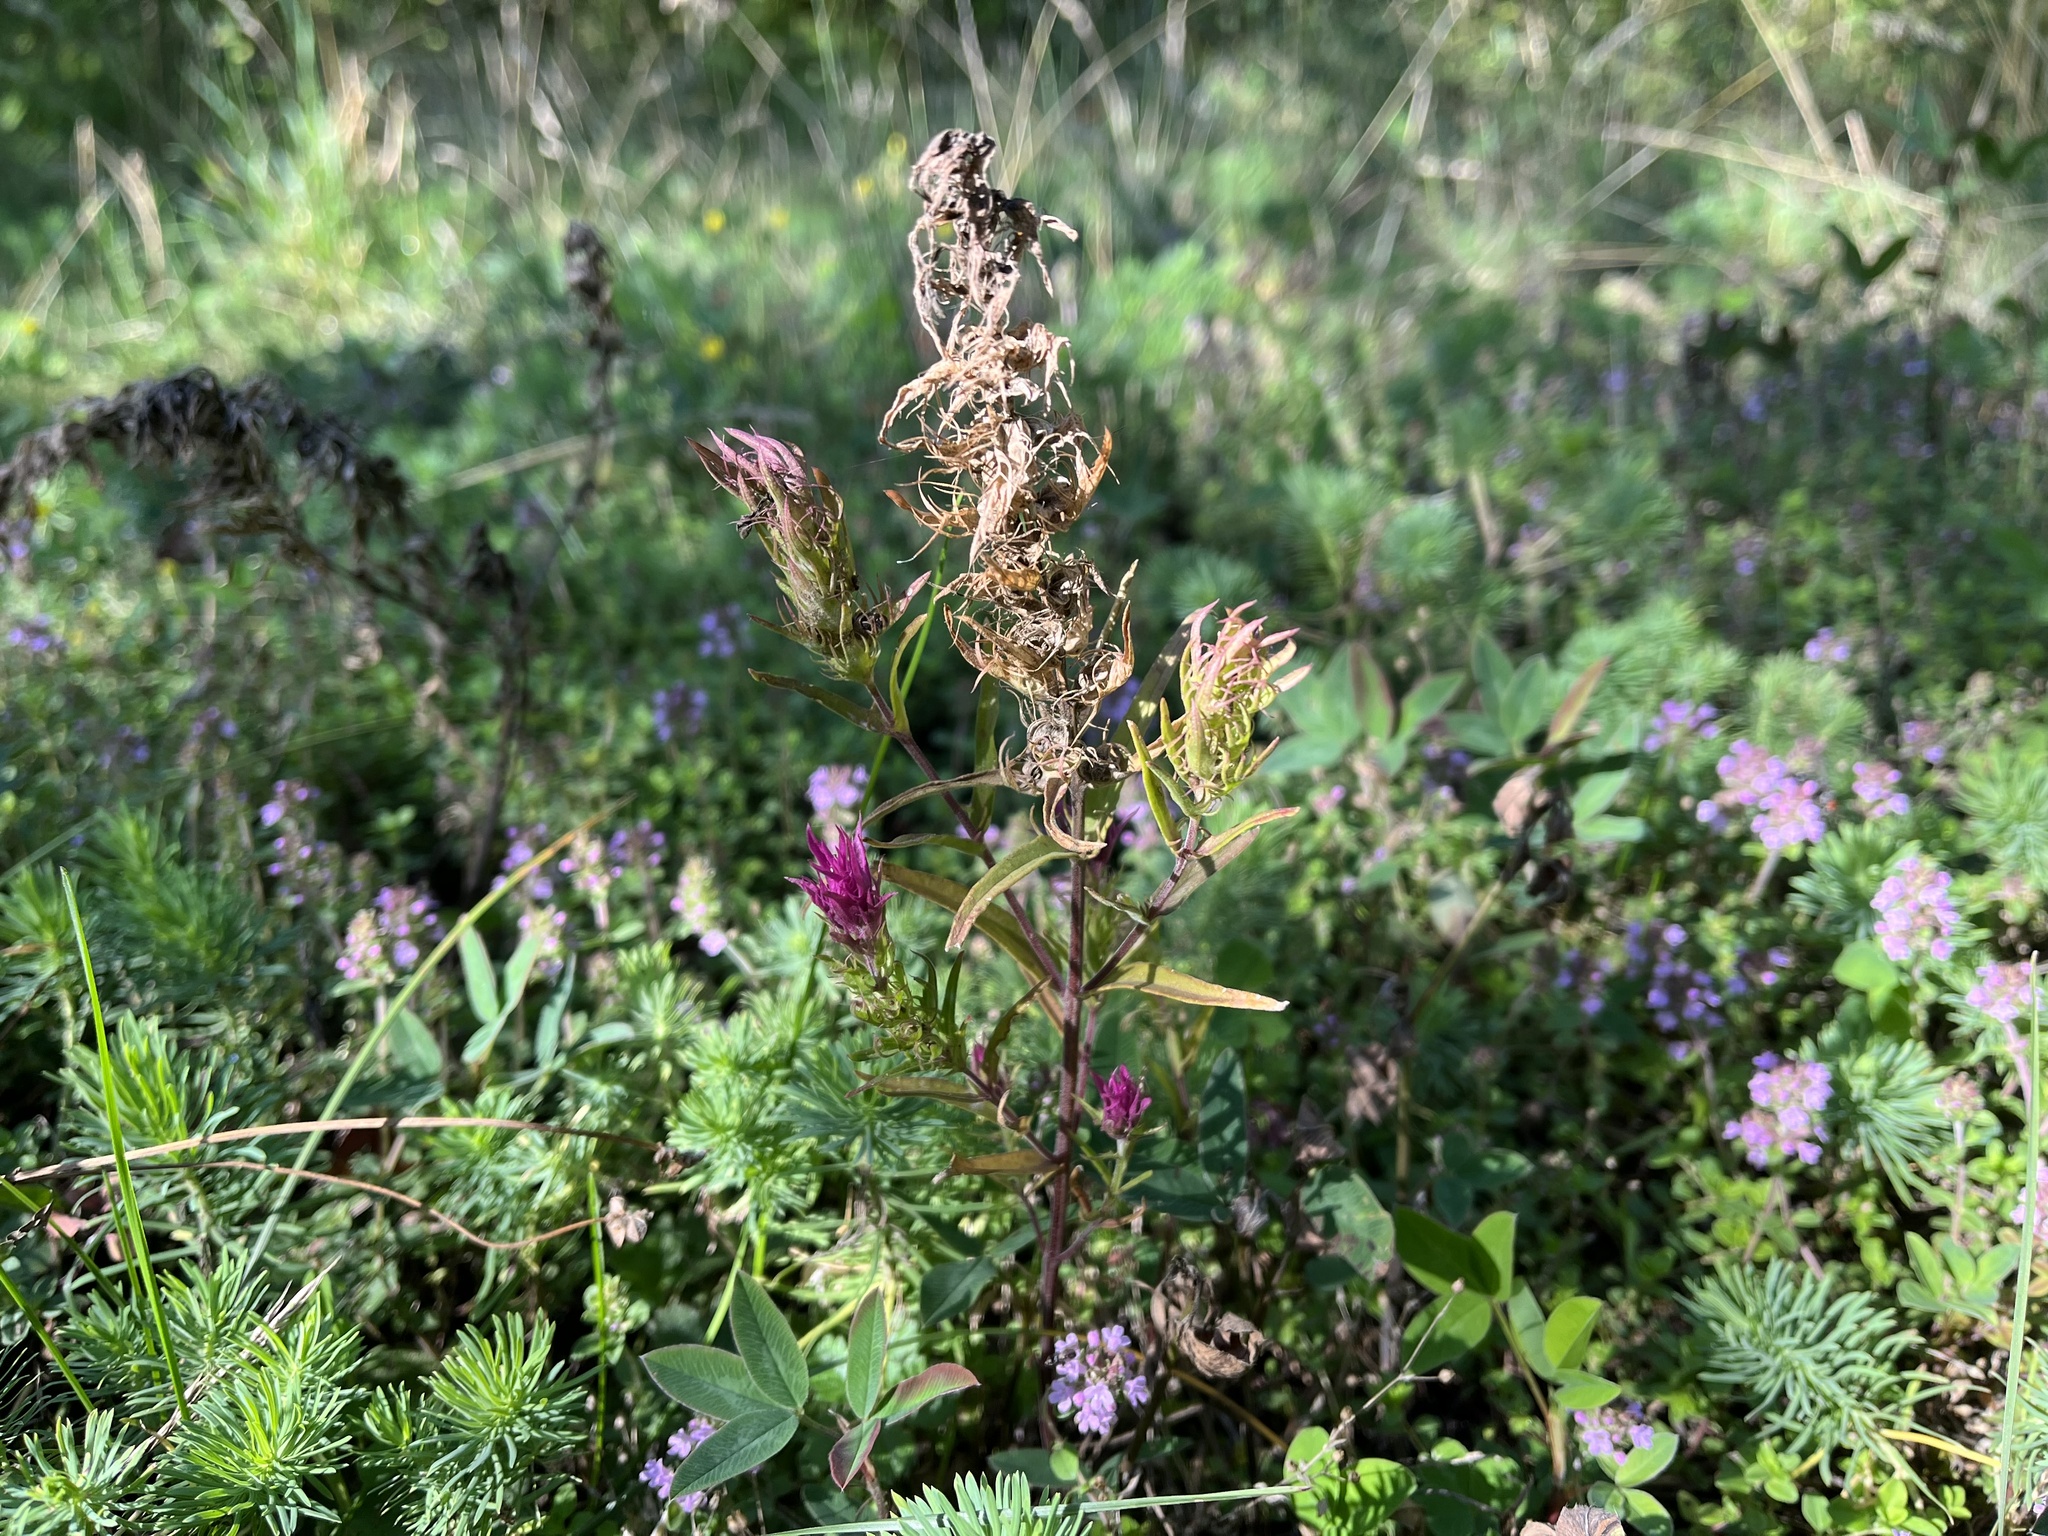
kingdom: Plantae
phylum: Tracheophyta
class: Magnoliopsida
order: Lamiales
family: Orobanchaceae
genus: Melampyrum
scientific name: Melampyrum arvense
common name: Field cow-wheat
